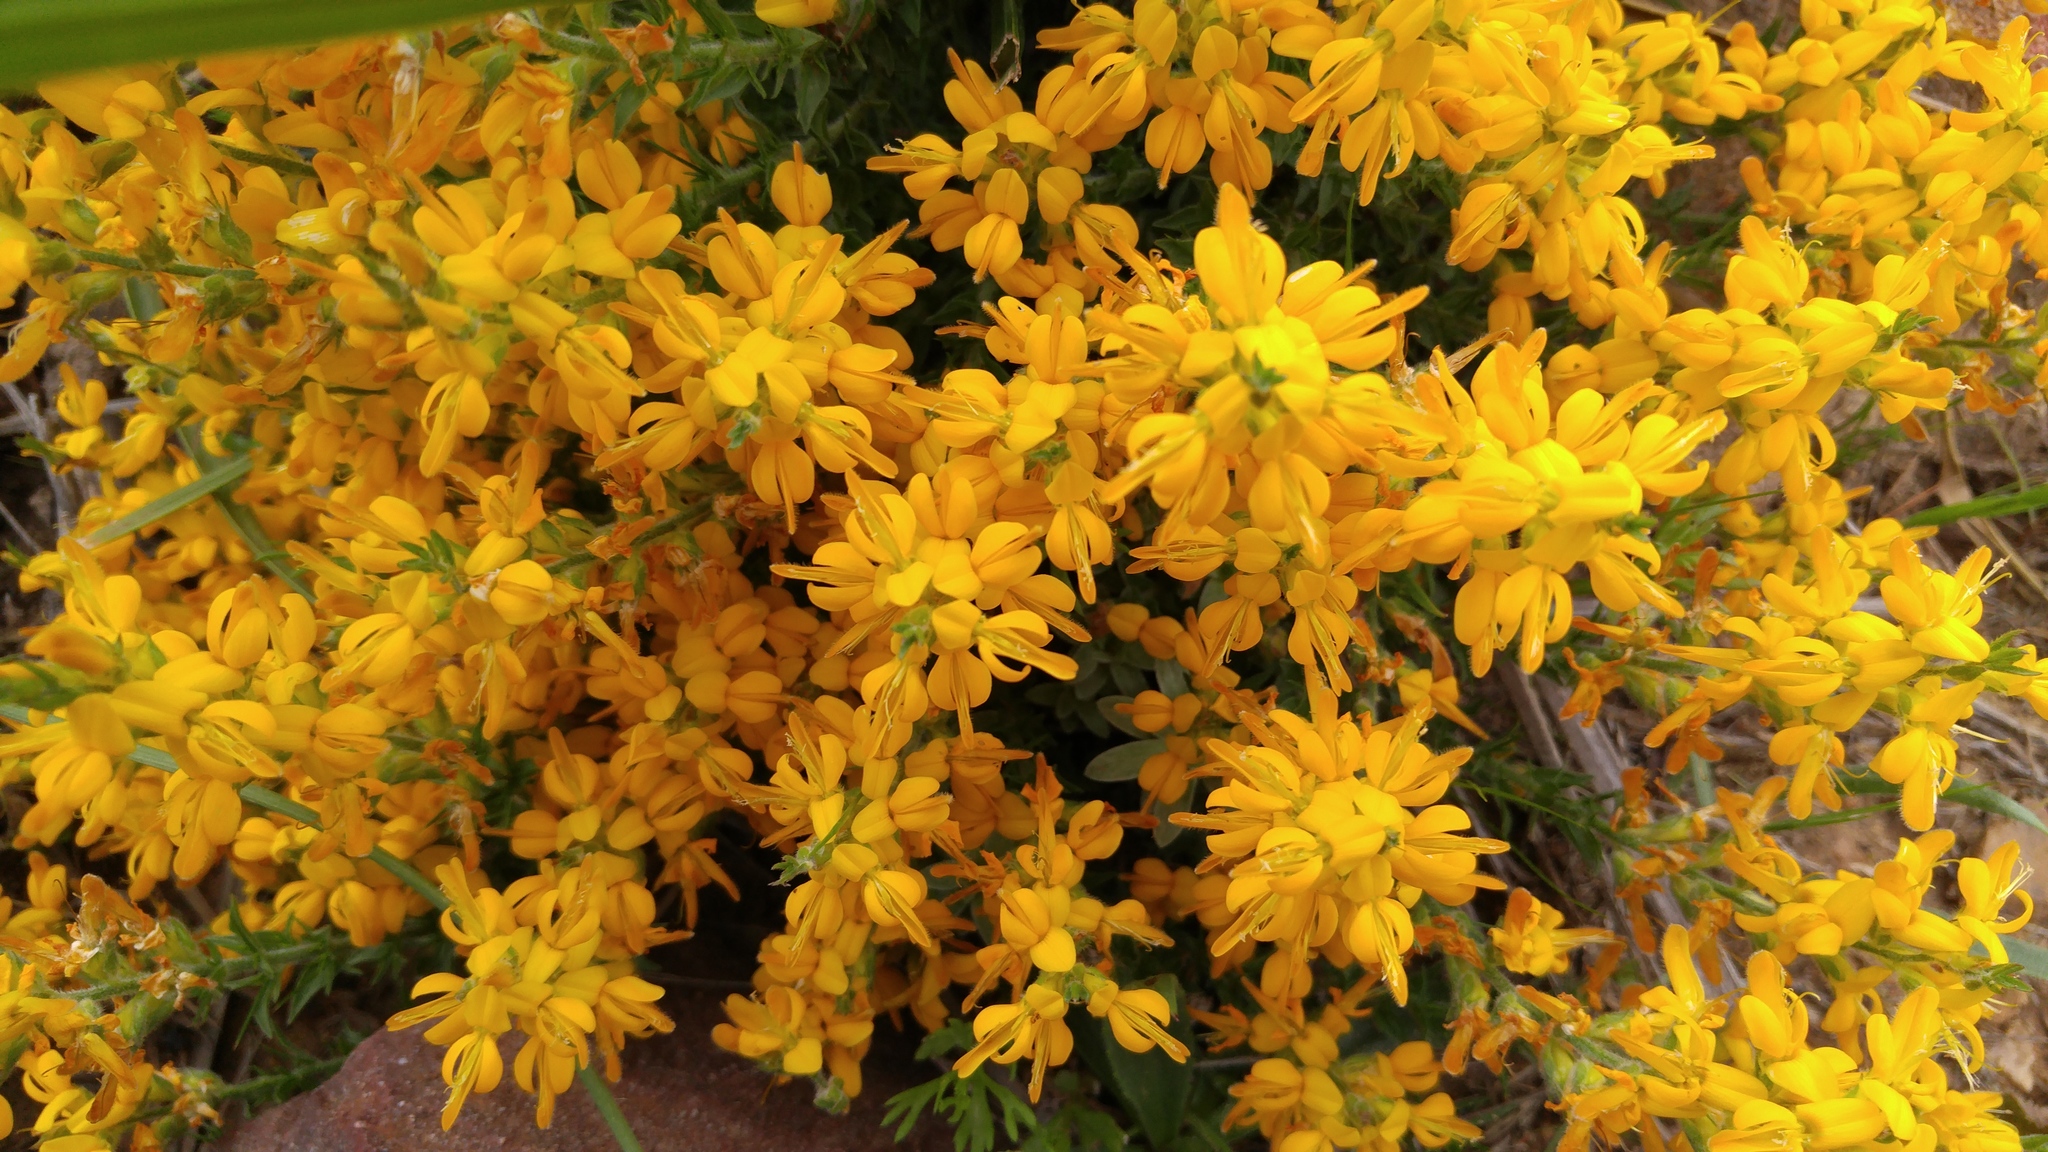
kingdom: Plantae
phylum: Tracheophyta
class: Magnoliopsida
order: Fabales
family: Fabaceae
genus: Genista
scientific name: Genista tricuspidata
